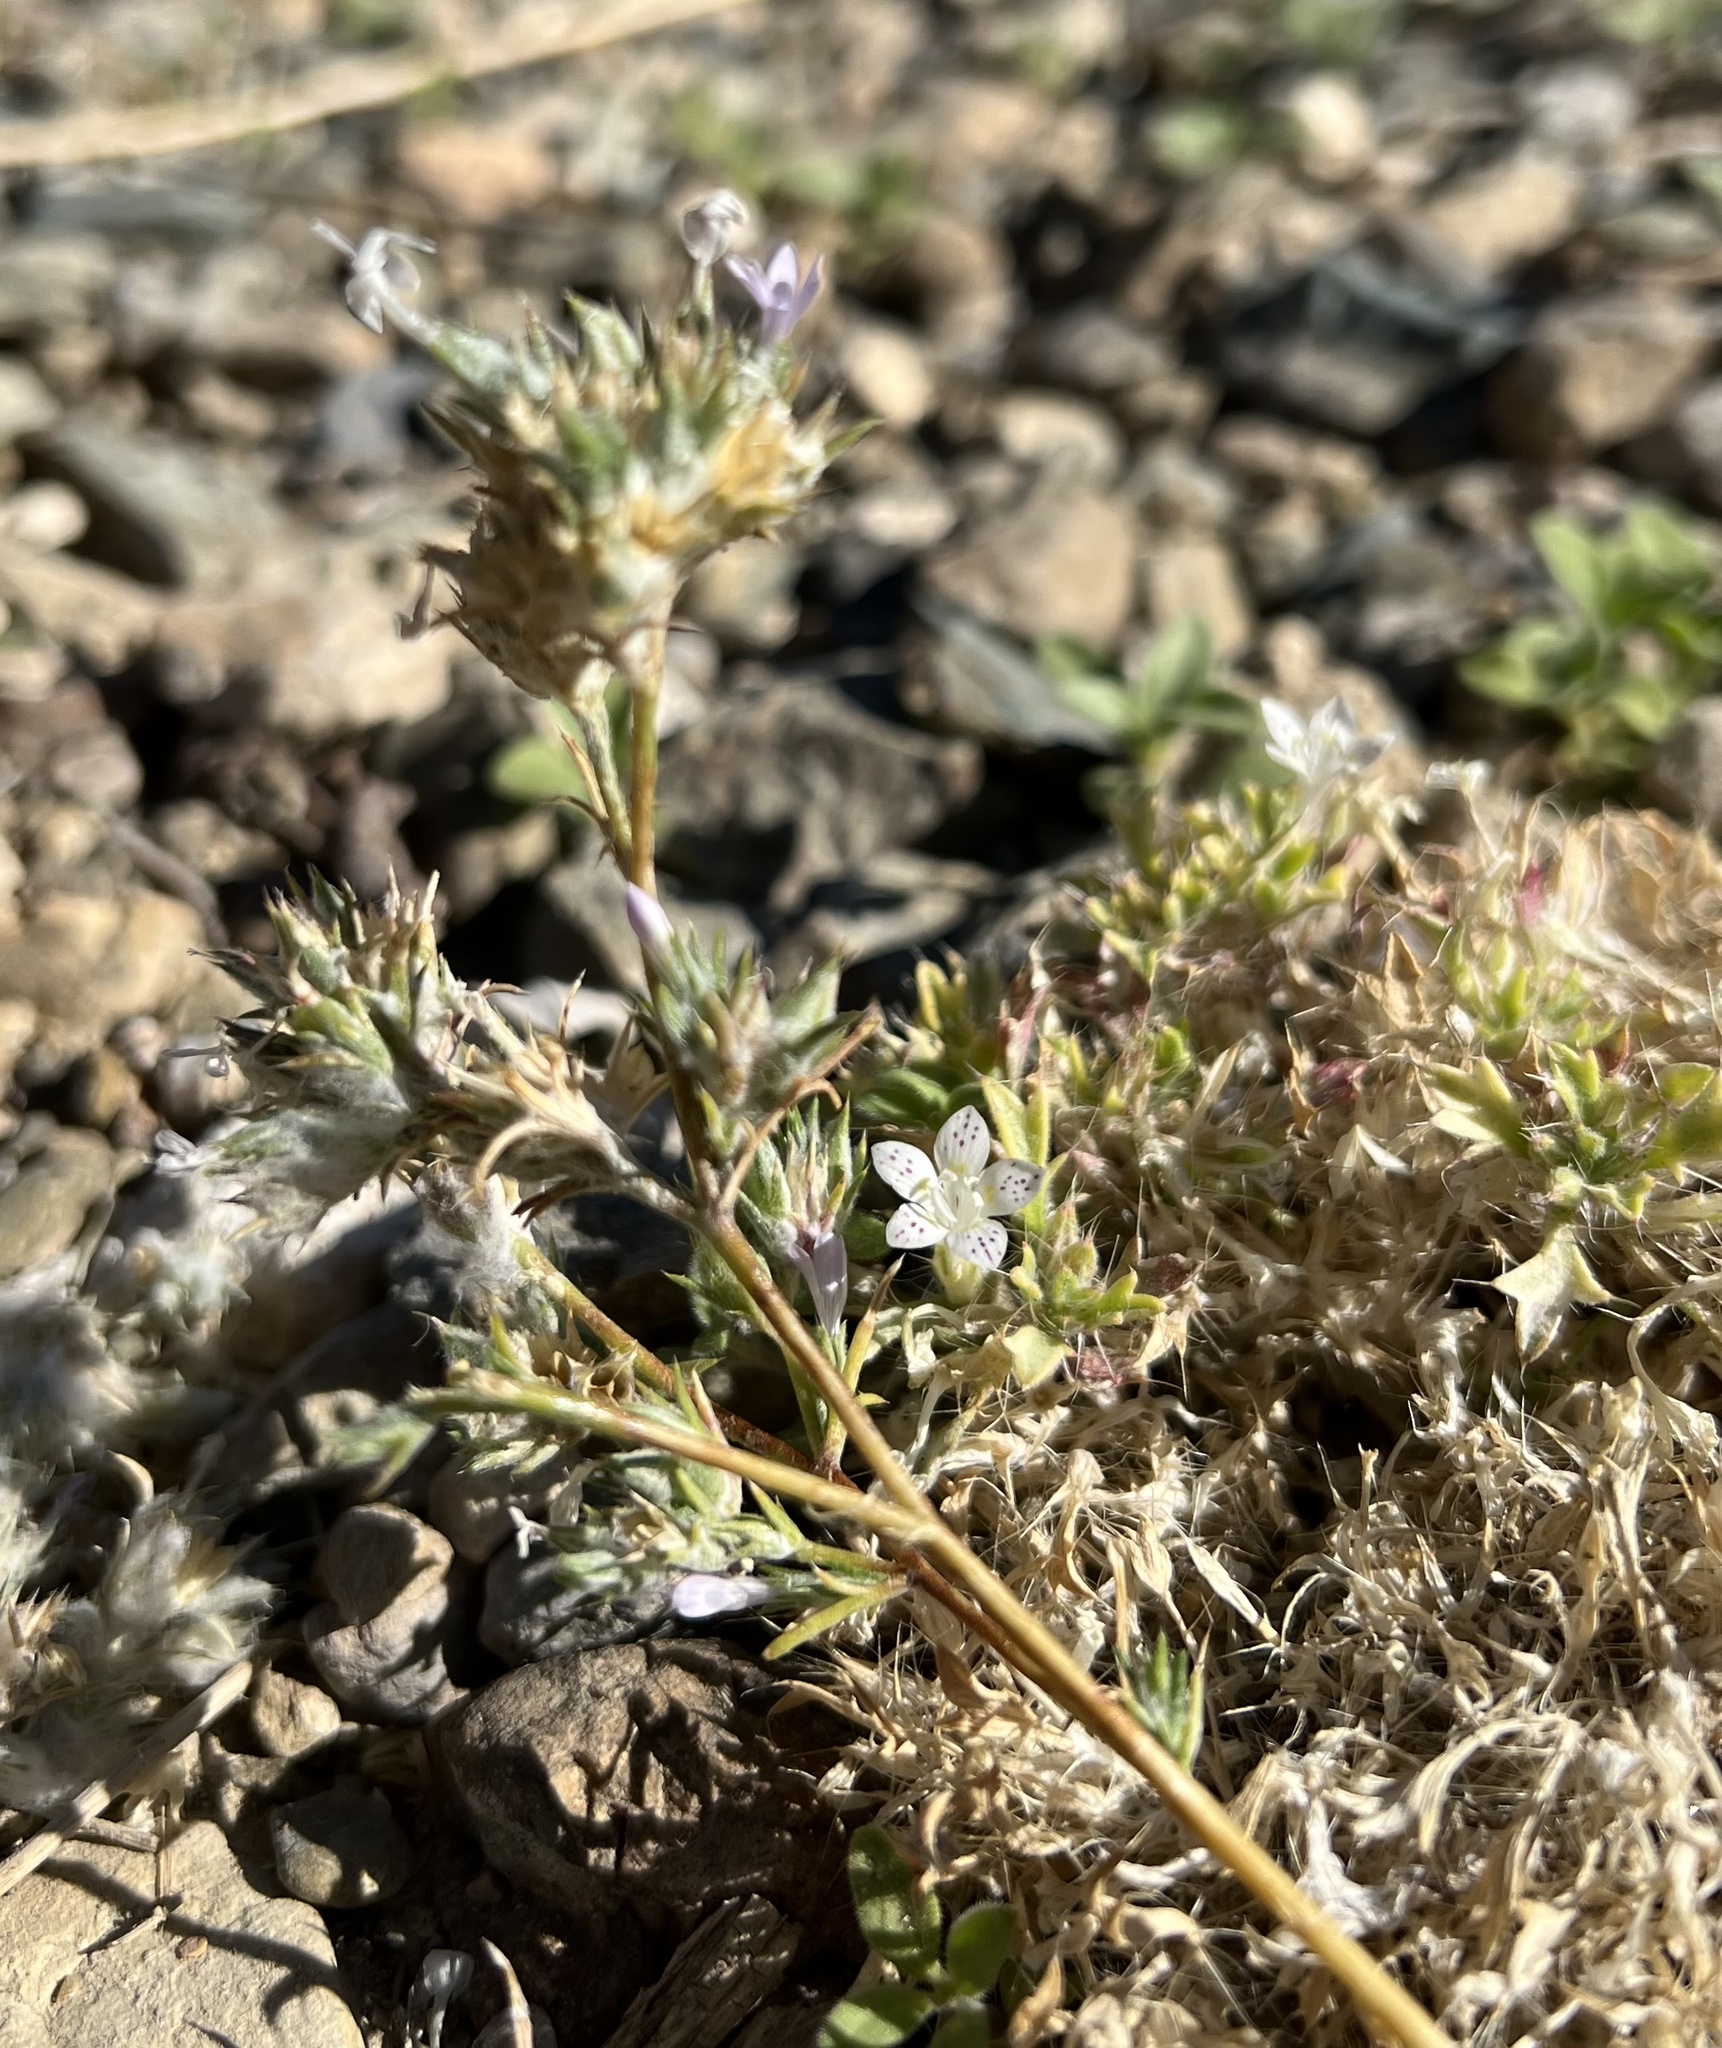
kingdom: Plantae
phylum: Tracheophyta
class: Magnoliopsida
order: Ericales
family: Polemoniaceae
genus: Eriastrum
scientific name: Eriastrum wilcoxii
